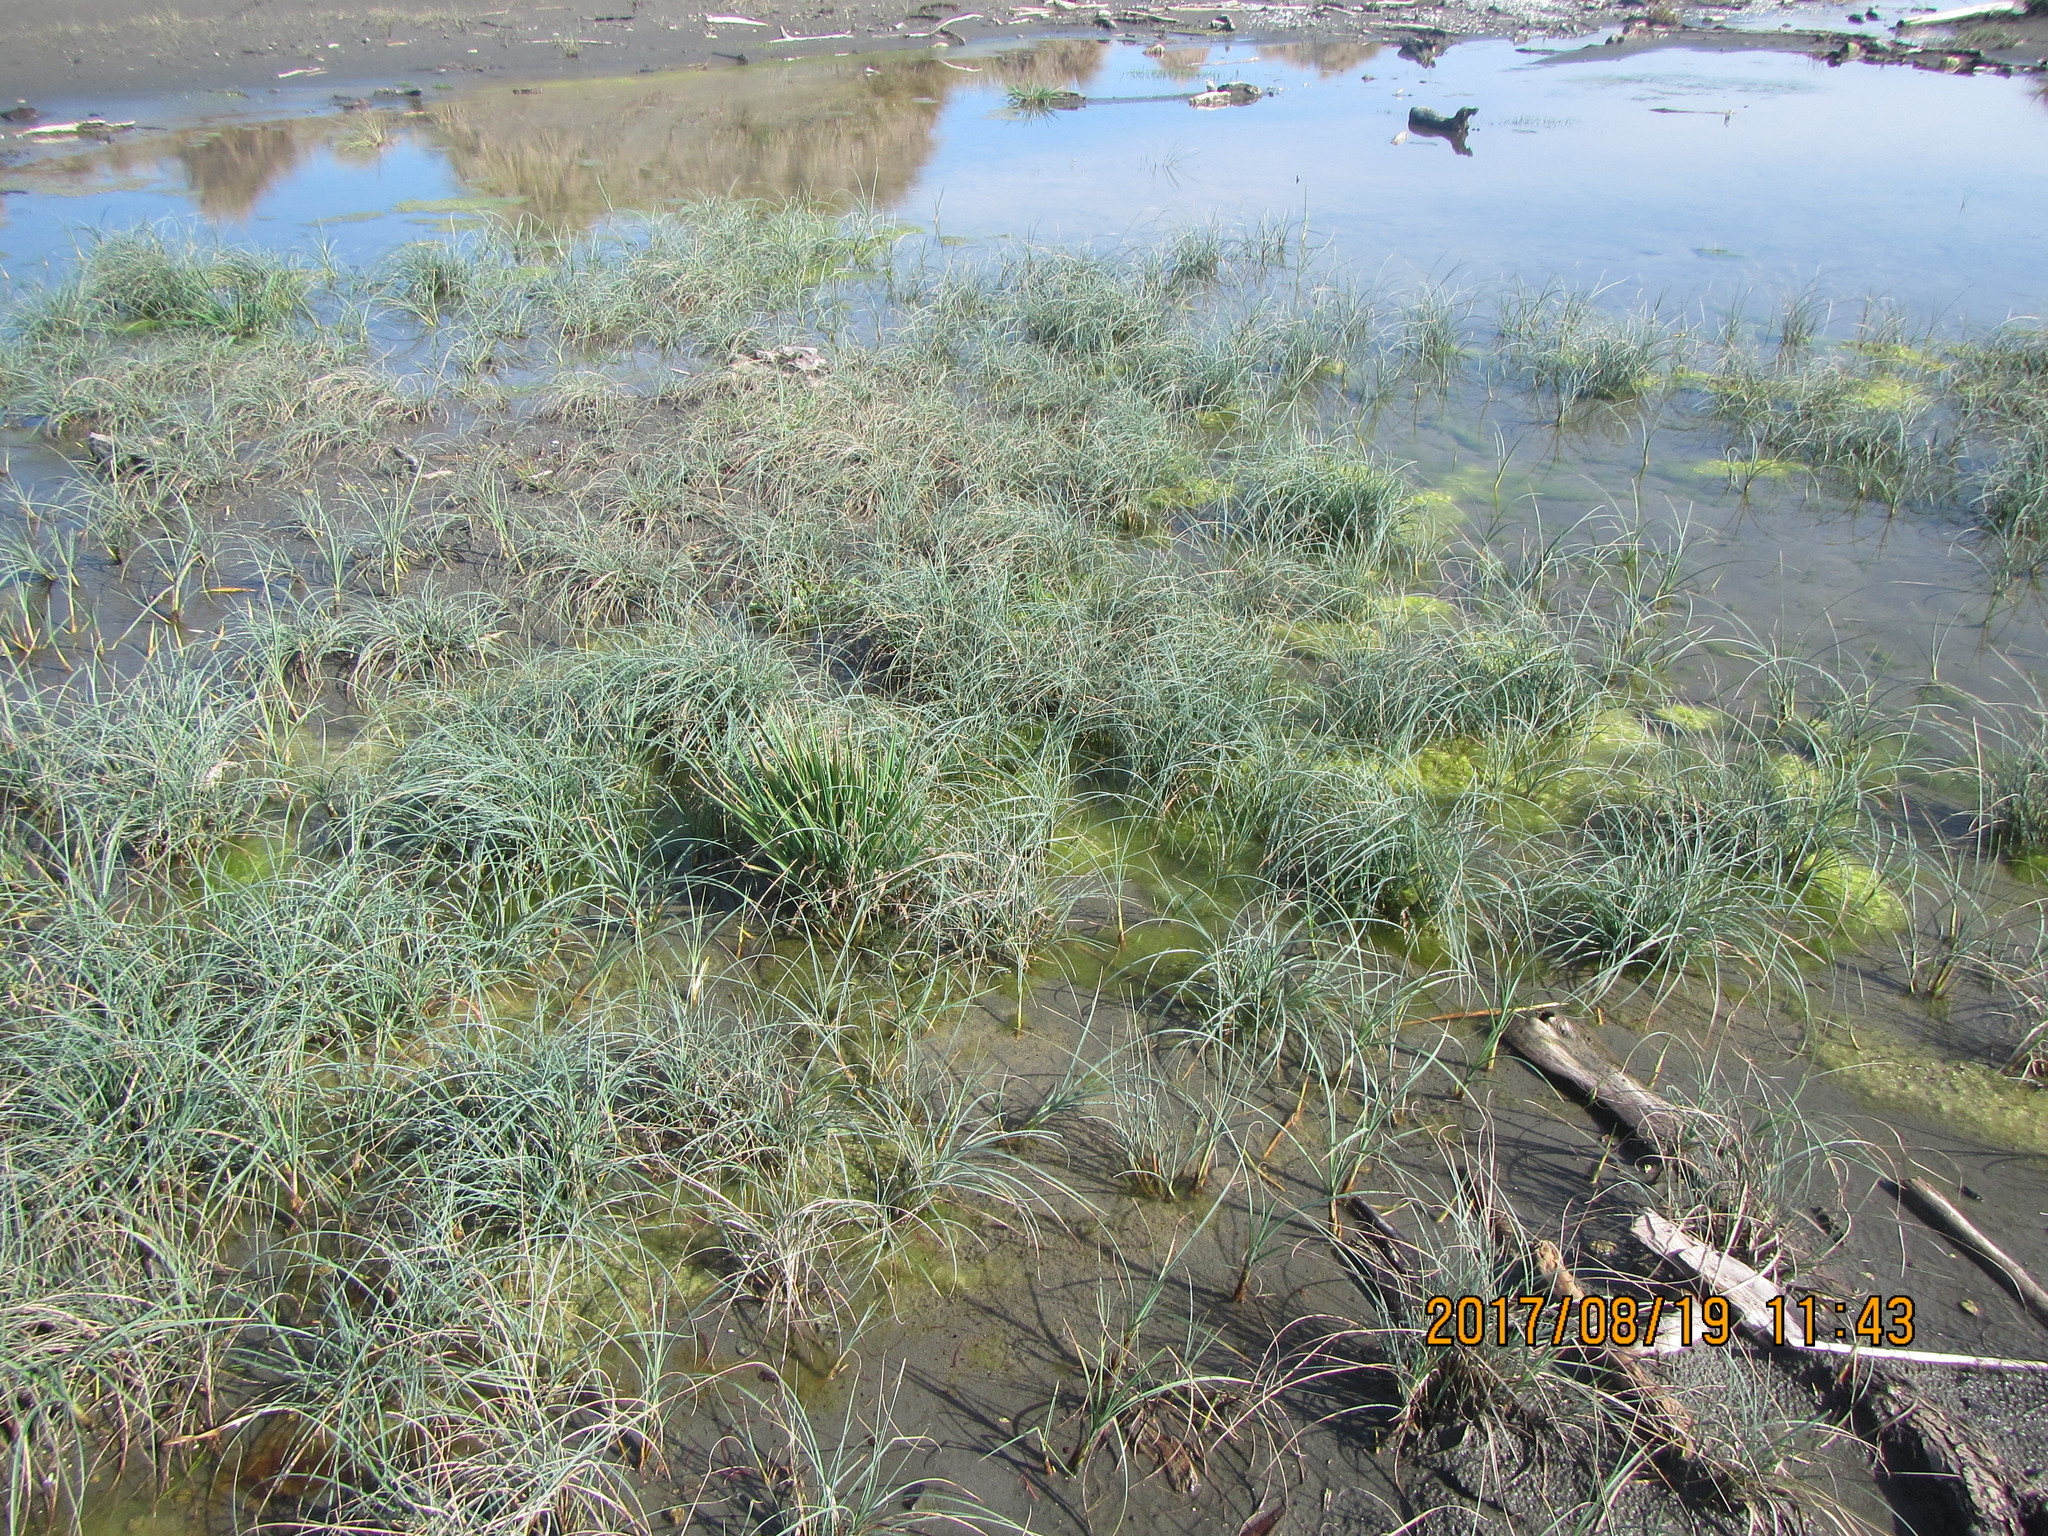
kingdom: Plantae
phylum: Tracheophyta
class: Liliopsida
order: Poales
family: Cyperaceae
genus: Carex
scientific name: Carex pumila
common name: Dwarf sedge
